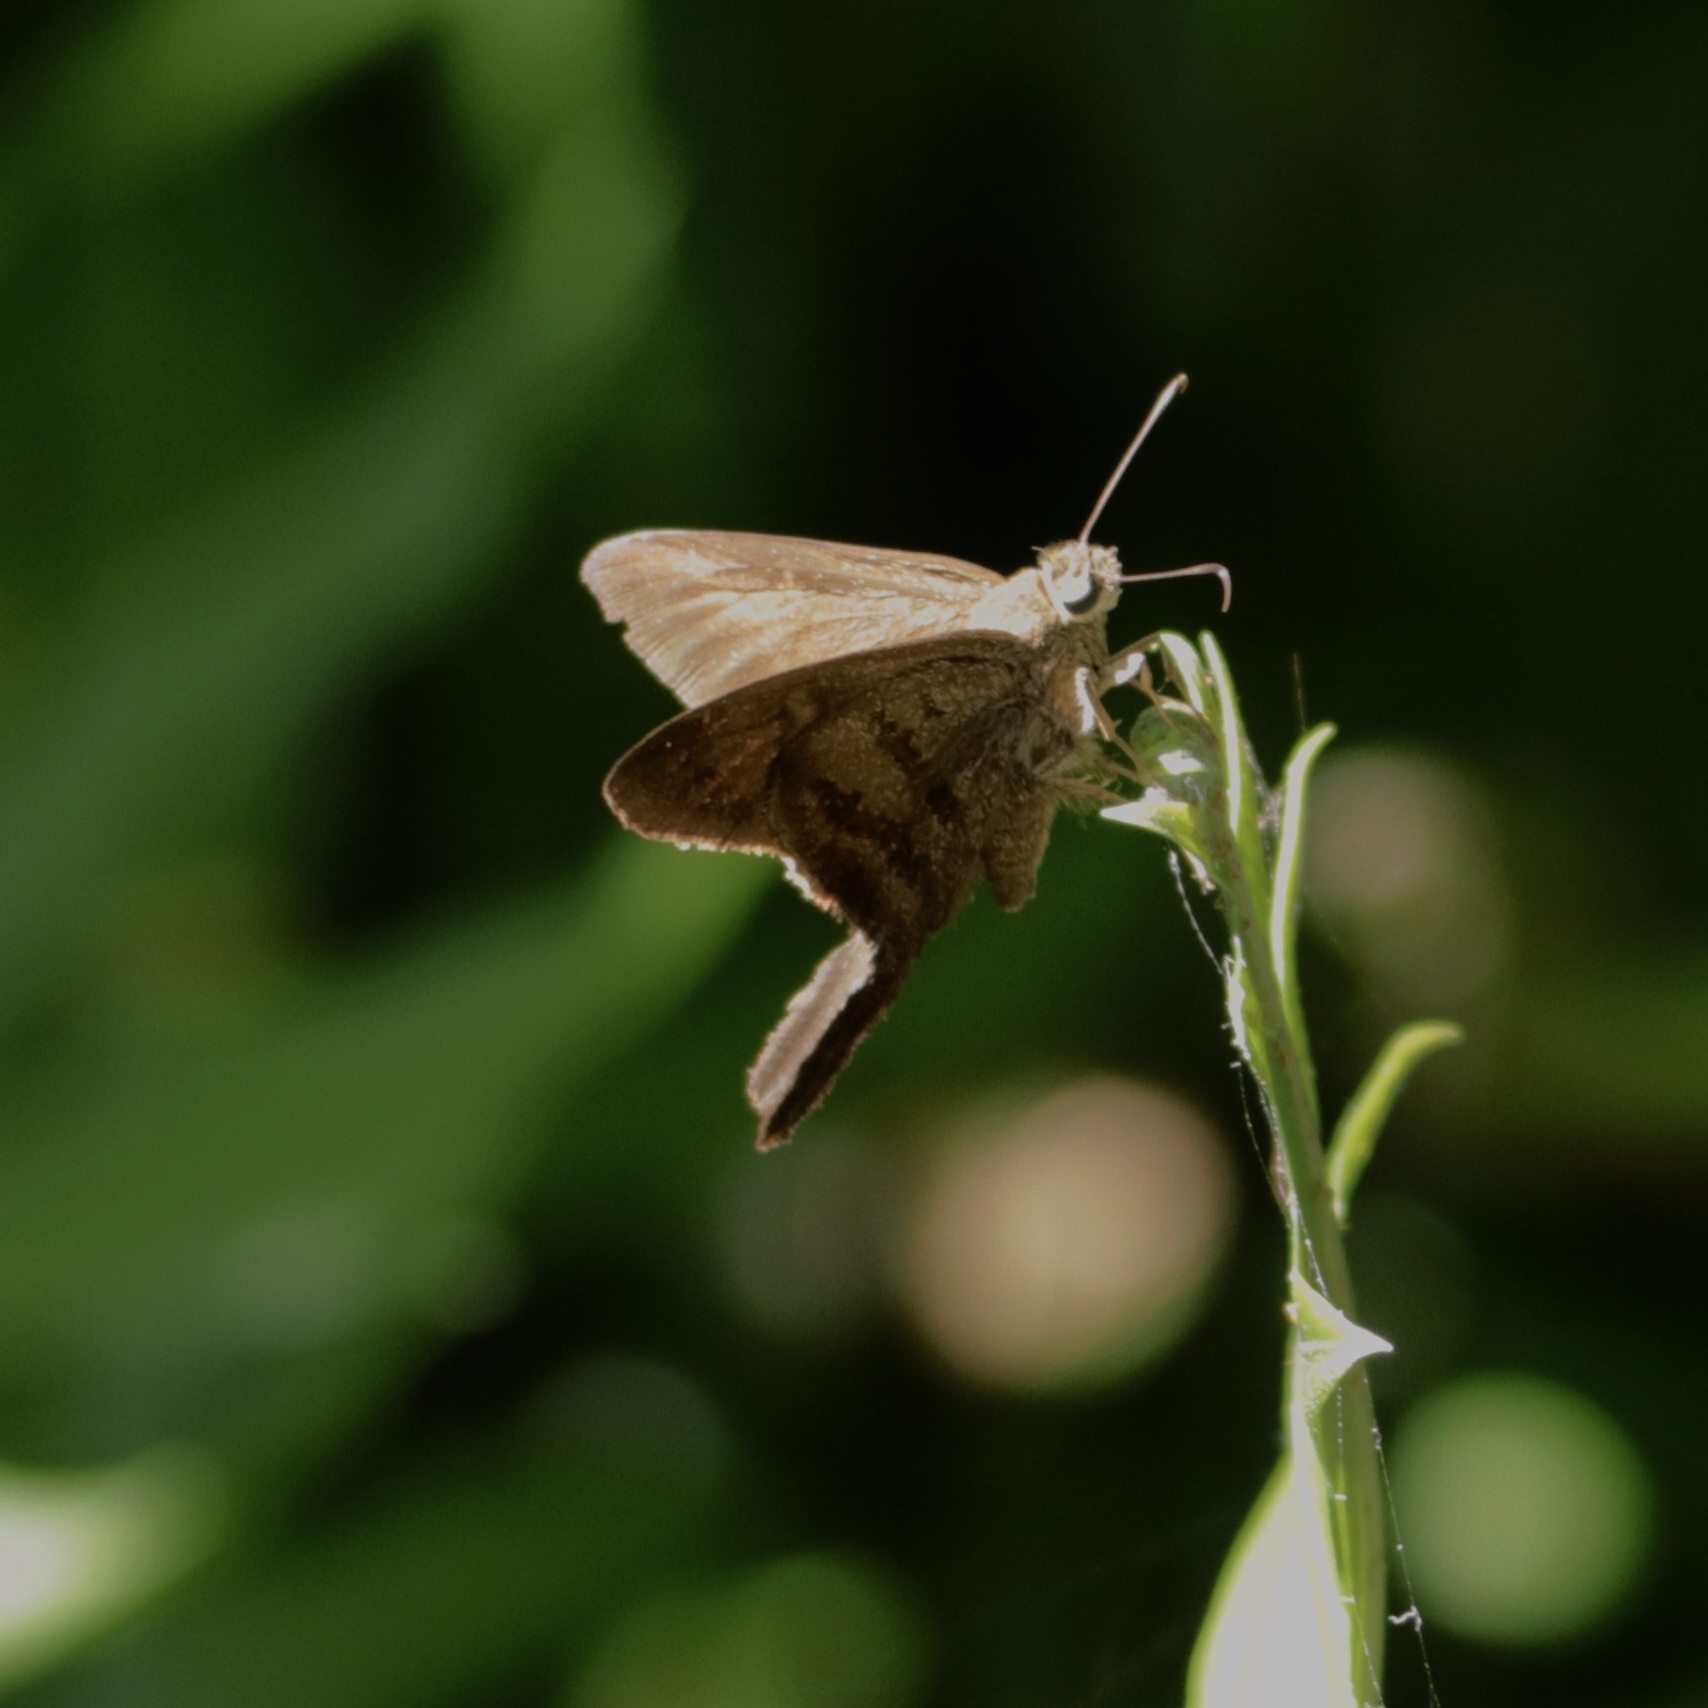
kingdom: Animalia
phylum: Arthropoda
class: Insecta
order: Lepidoptera
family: Hesperiidae
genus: Urbanus
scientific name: Urbanus procne
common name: Brown longtail
